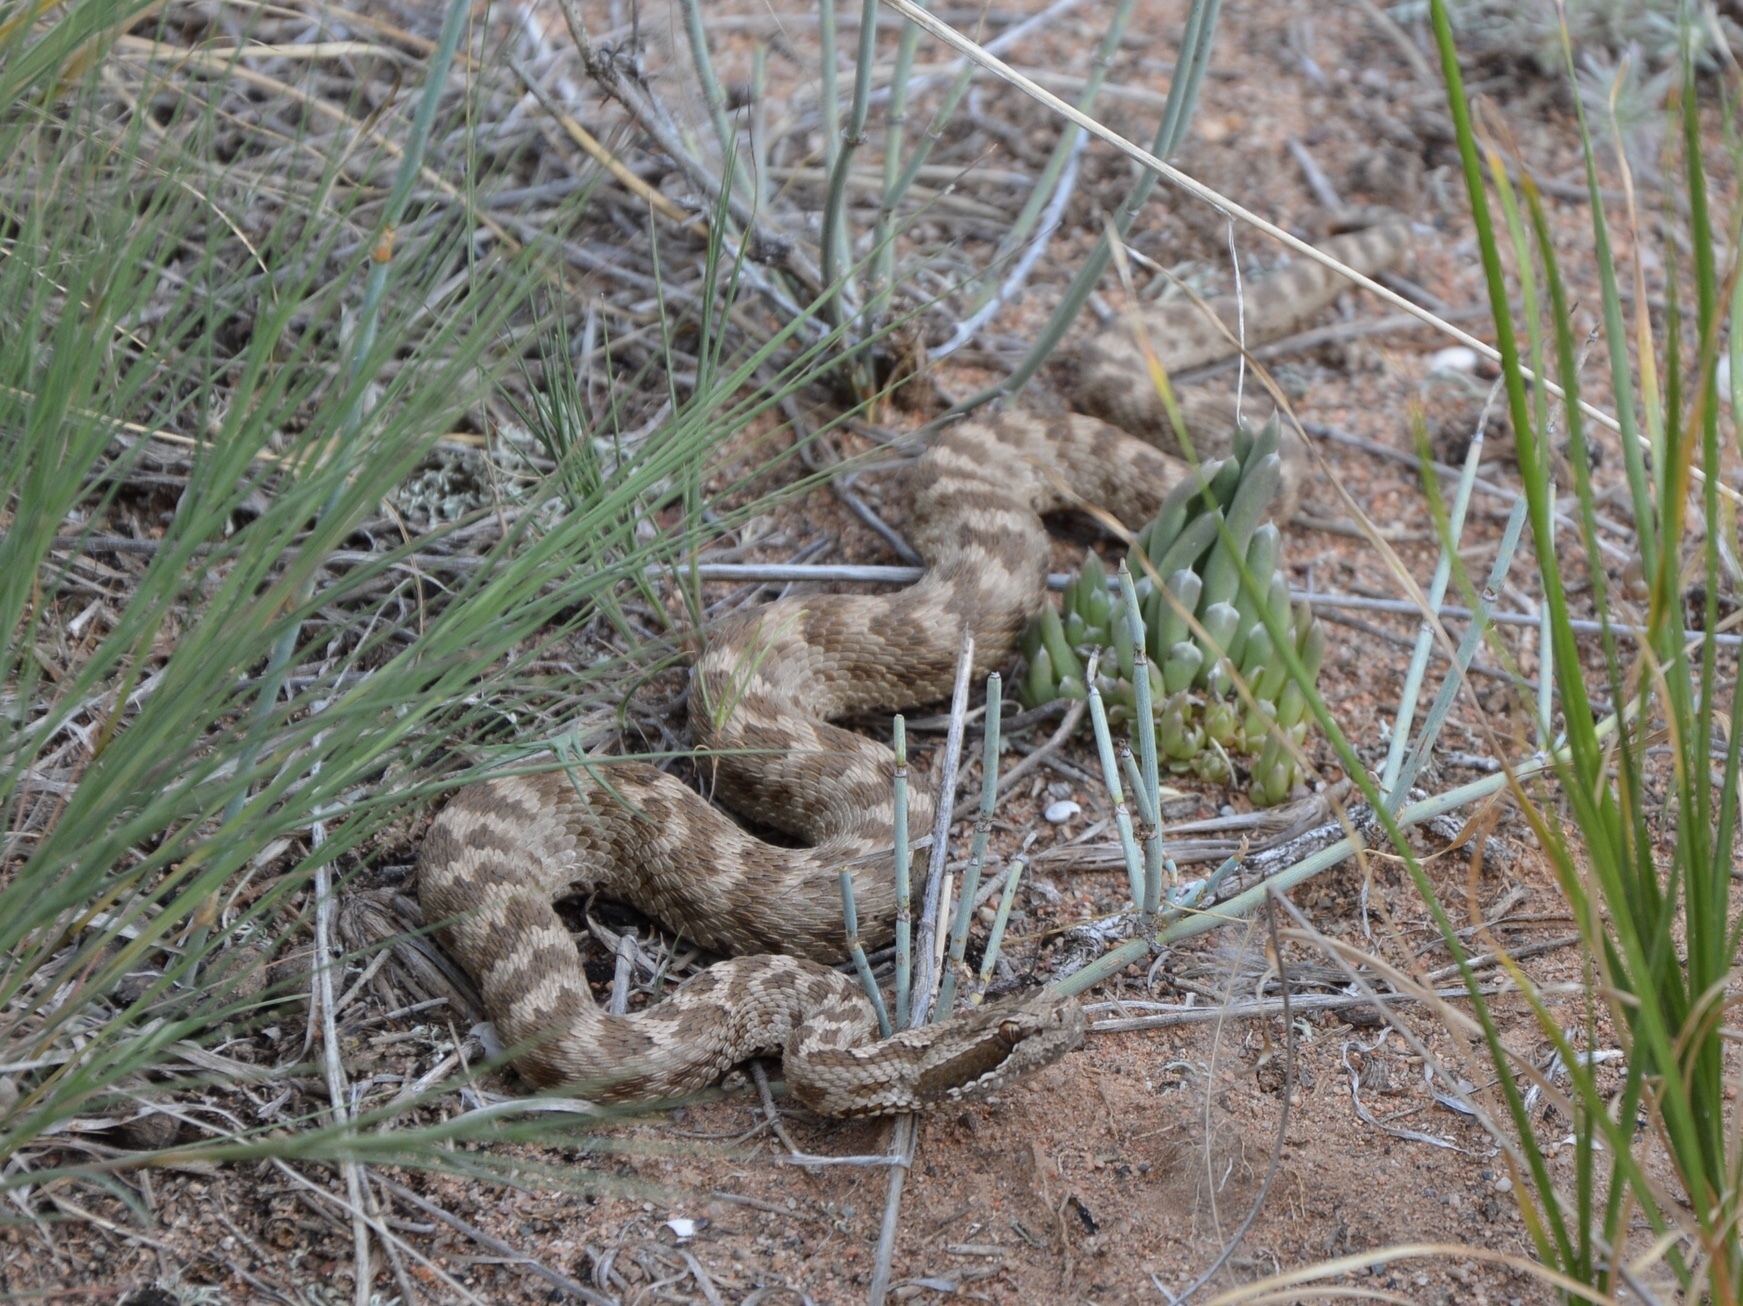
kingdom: Animalia
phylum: Chordata
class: Squamata
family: Viperidae
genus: Gloydius
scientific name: Gloydius halys
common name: Halys pit viper
